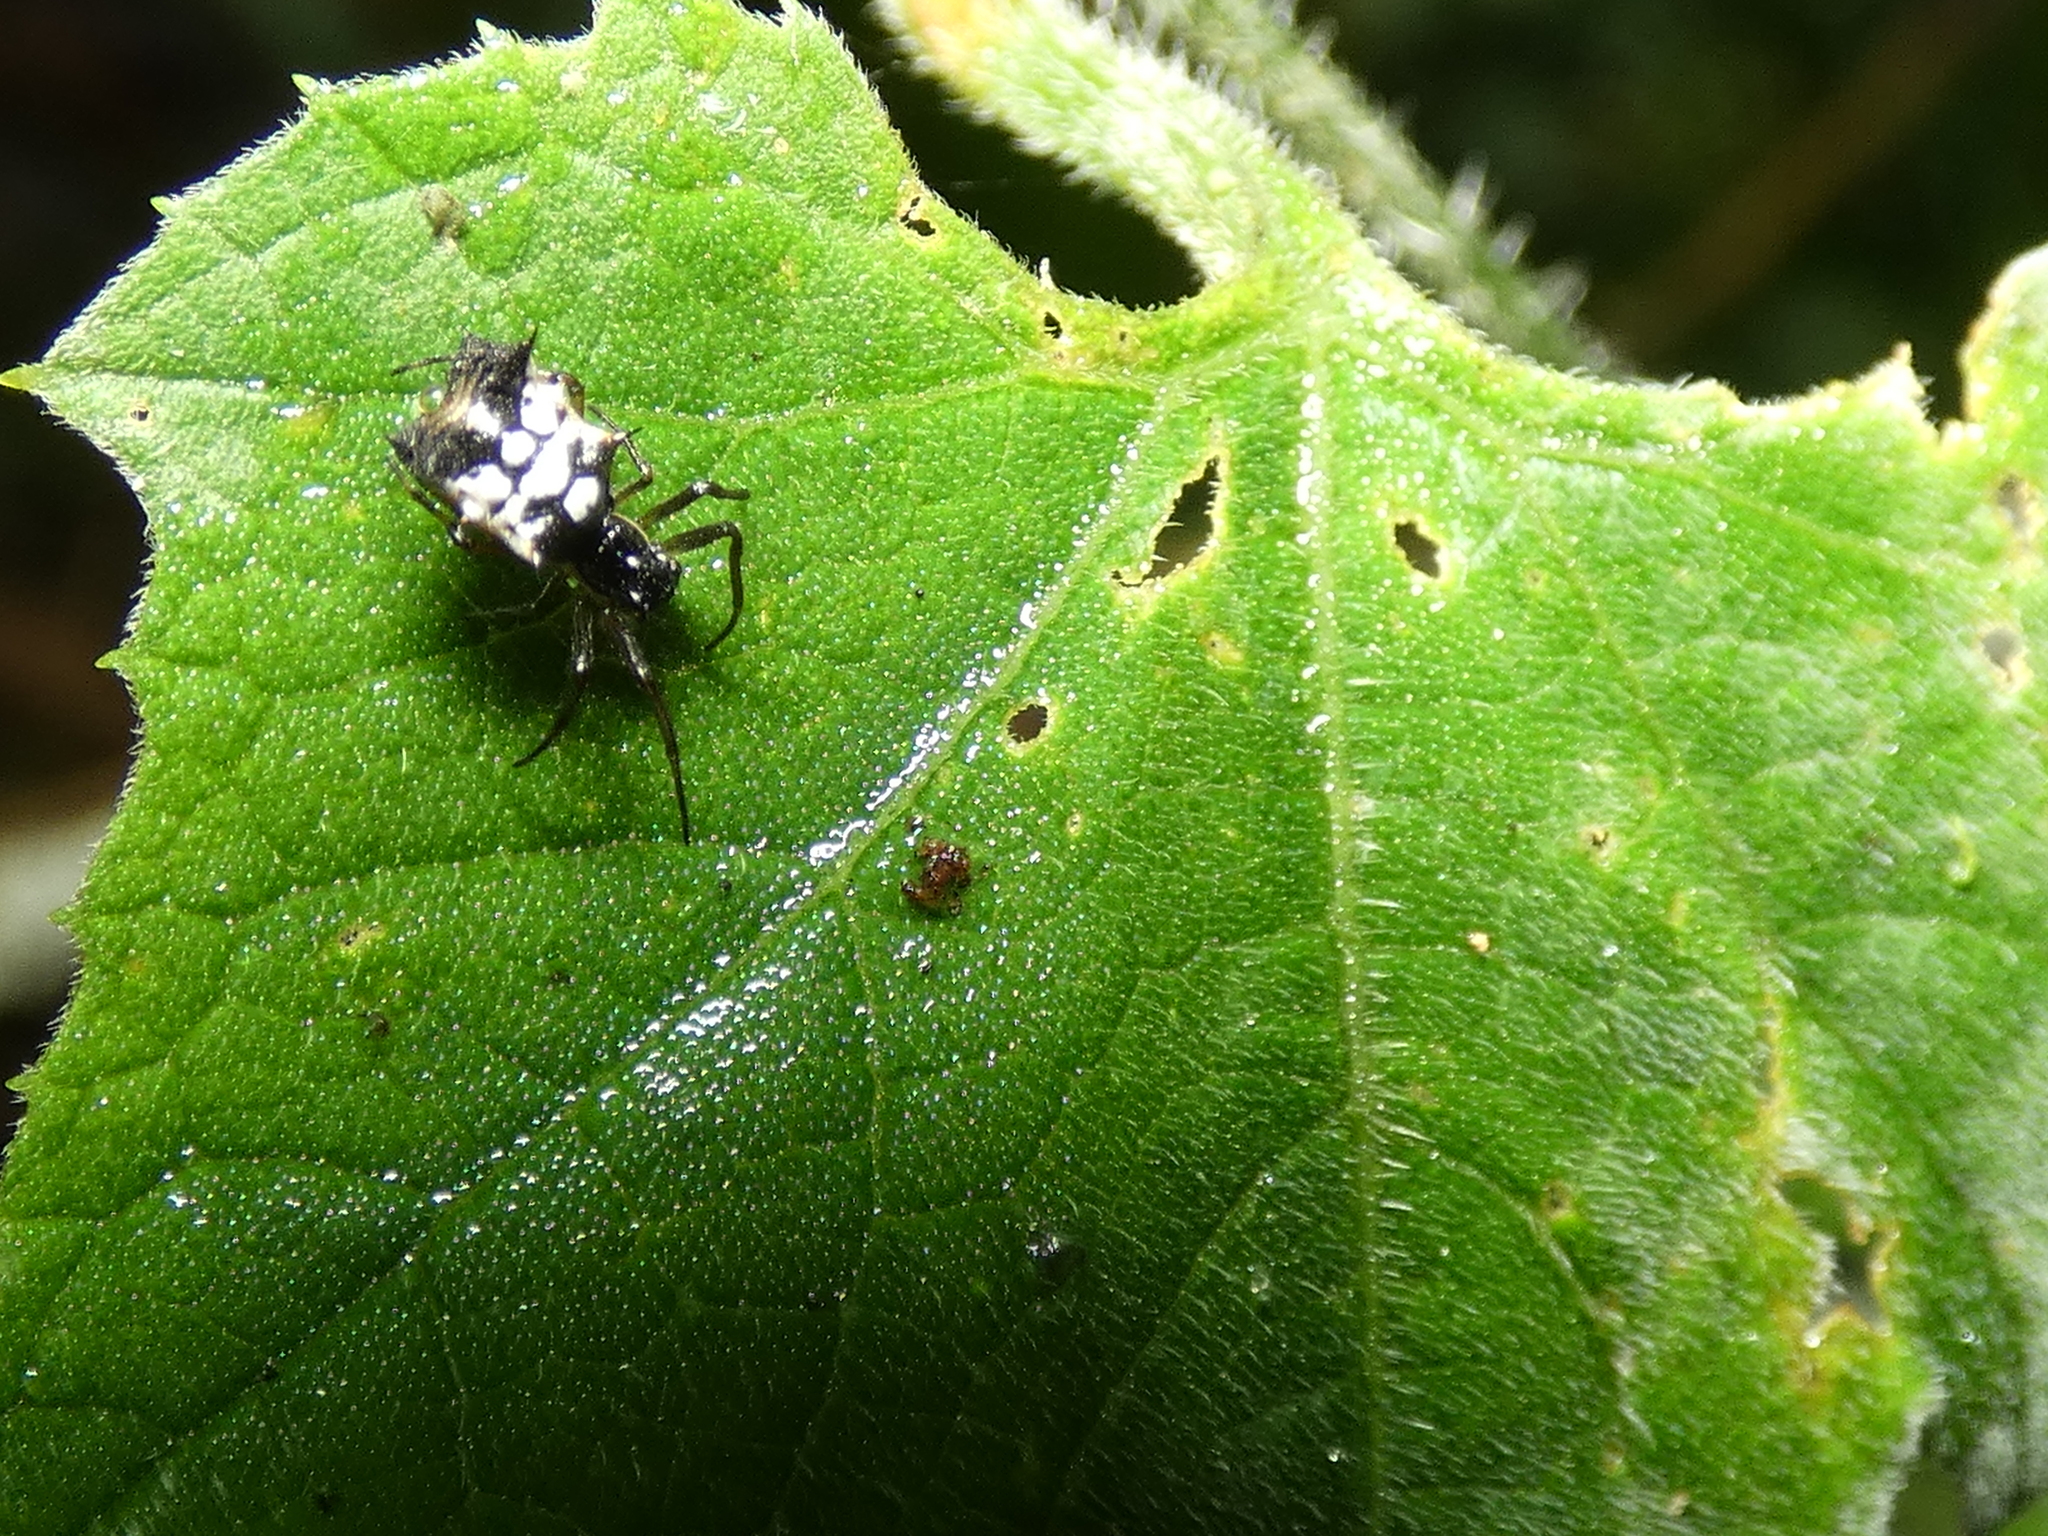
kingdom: Animalia
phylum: Arthropoda
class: Arachnida
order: Araneae
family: Araneidae
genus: Micrathena
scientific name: Micrathena picta
